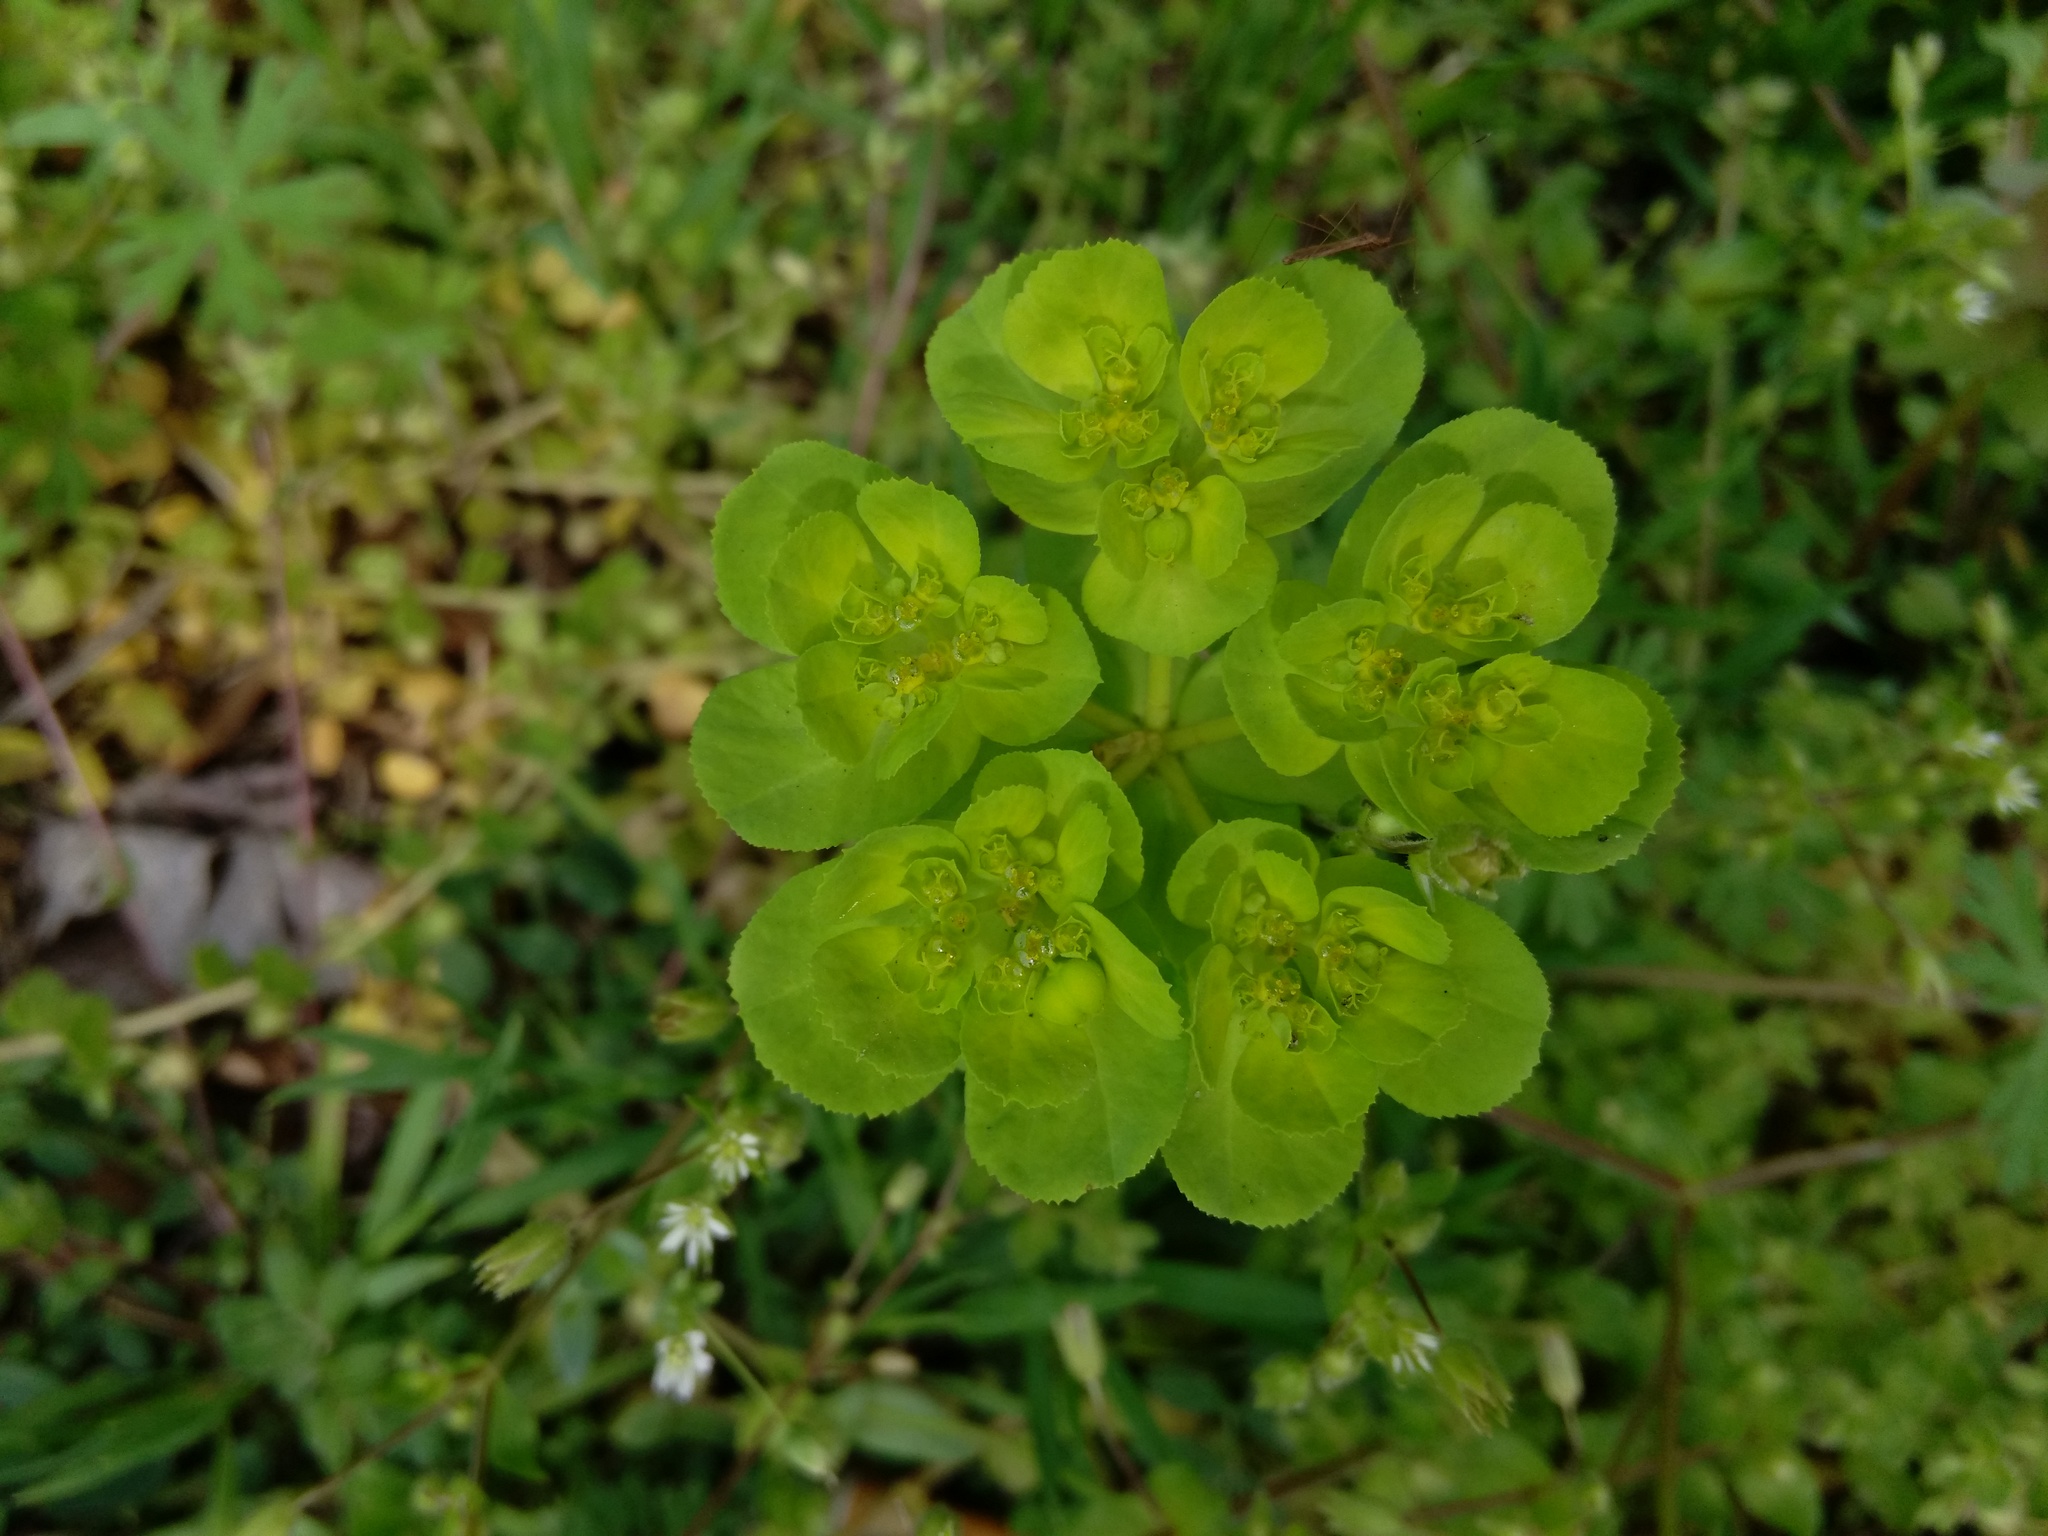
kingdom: Plantae
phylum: Tracheophyta
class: Magnoliopsida
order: Malpighiales
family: Euphorbiaceae
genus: Euphorbia
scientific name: Euphorbia helioscopia
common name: Sun spurge
